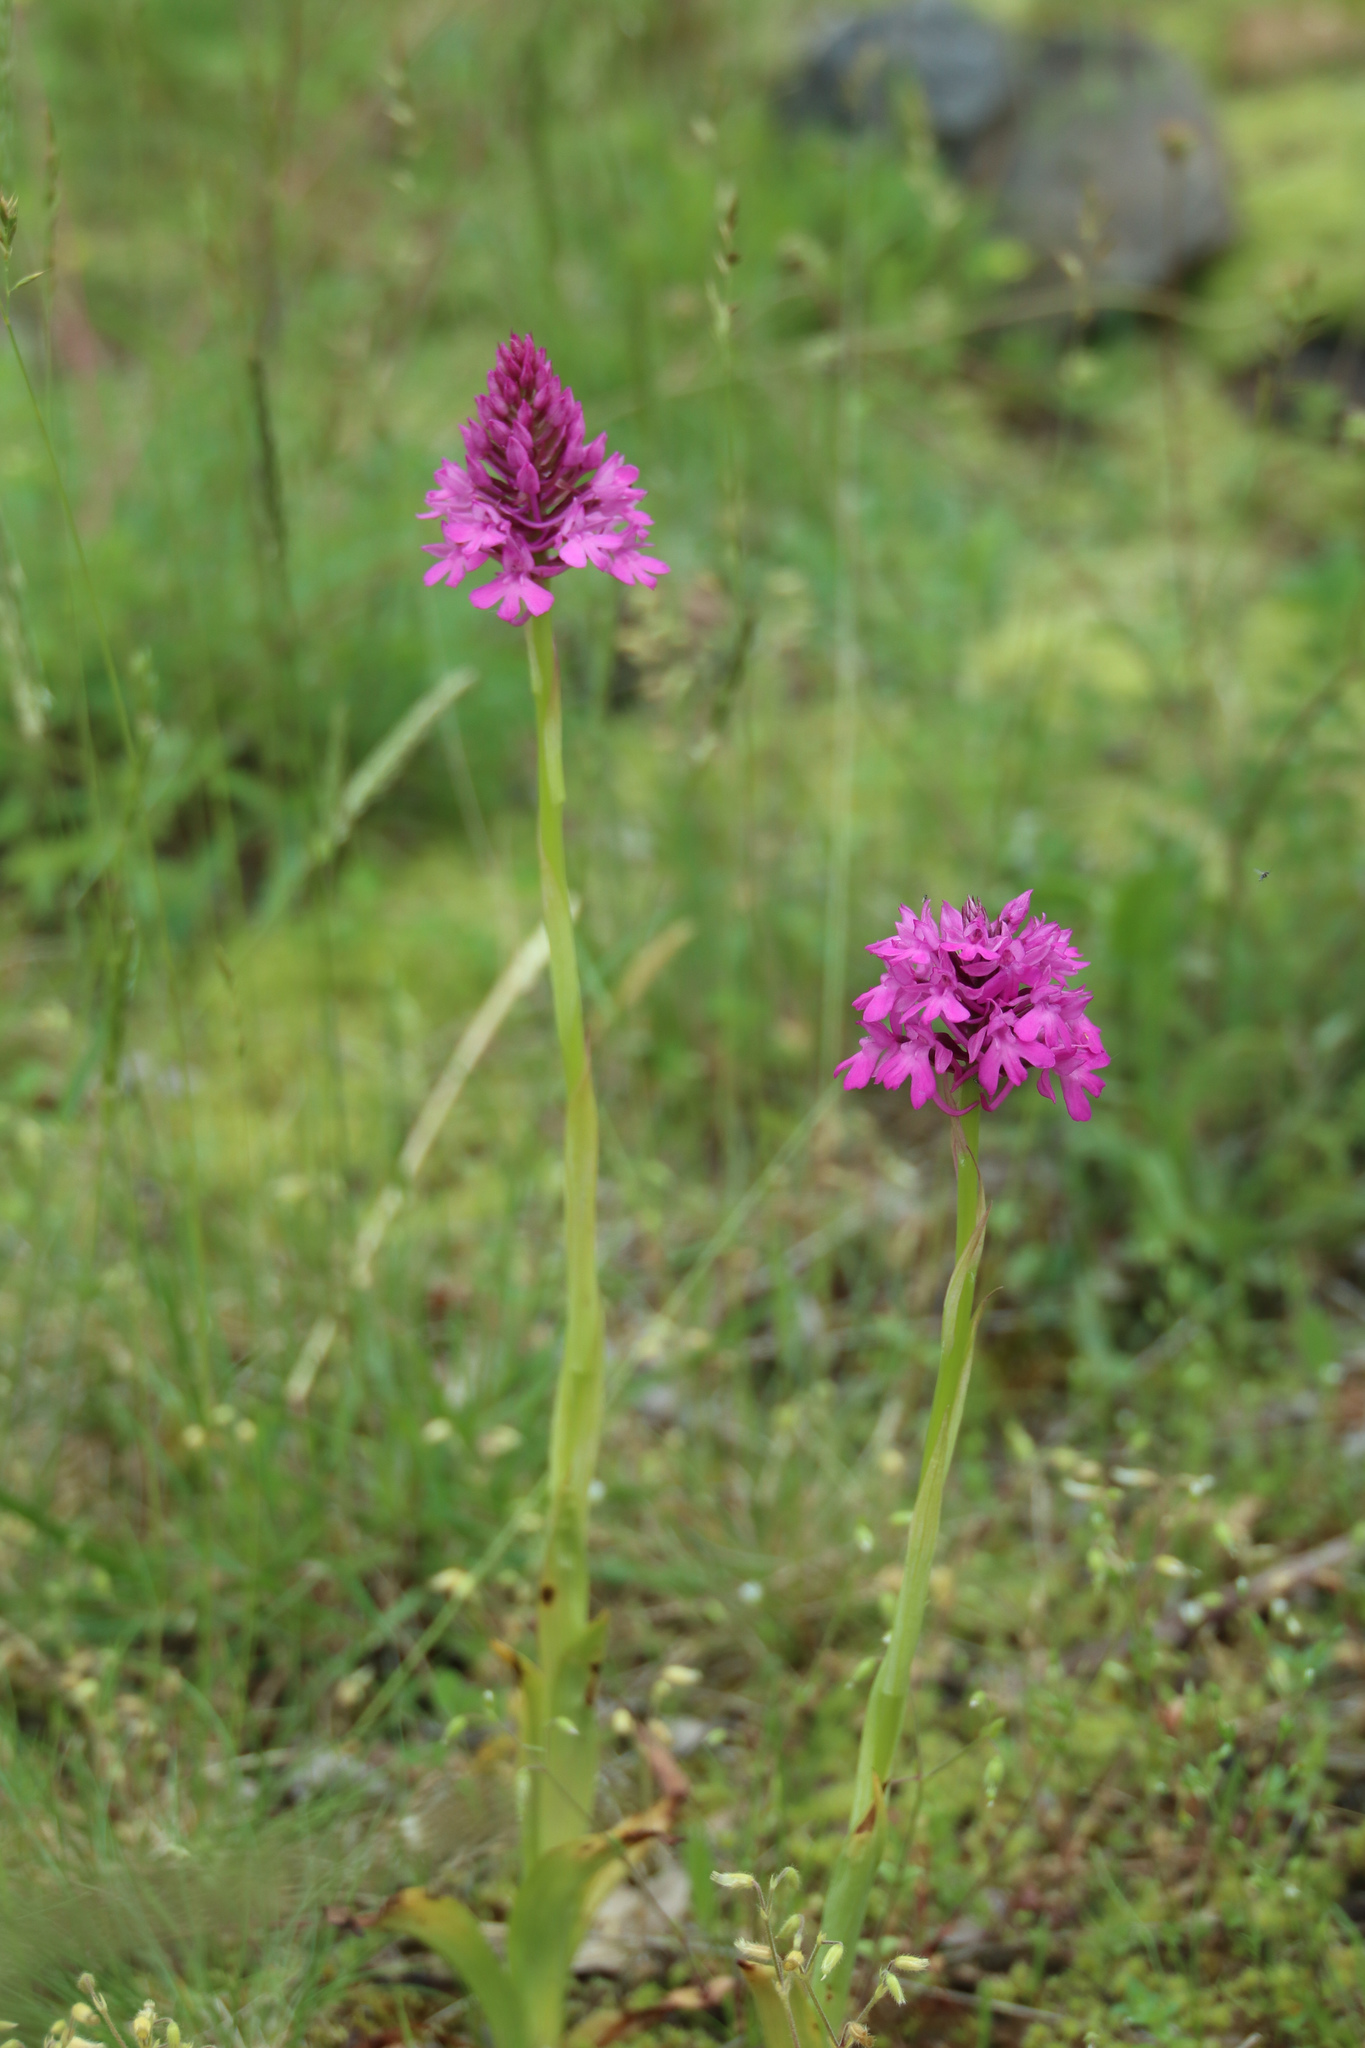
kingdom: Plantae
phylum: Tracheophyta
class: Liliopsida
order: Asparagales
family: Orchidaceae
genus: Anacamptis
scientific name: Anacamptis pyramidalis
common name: Pyramidal orchid
